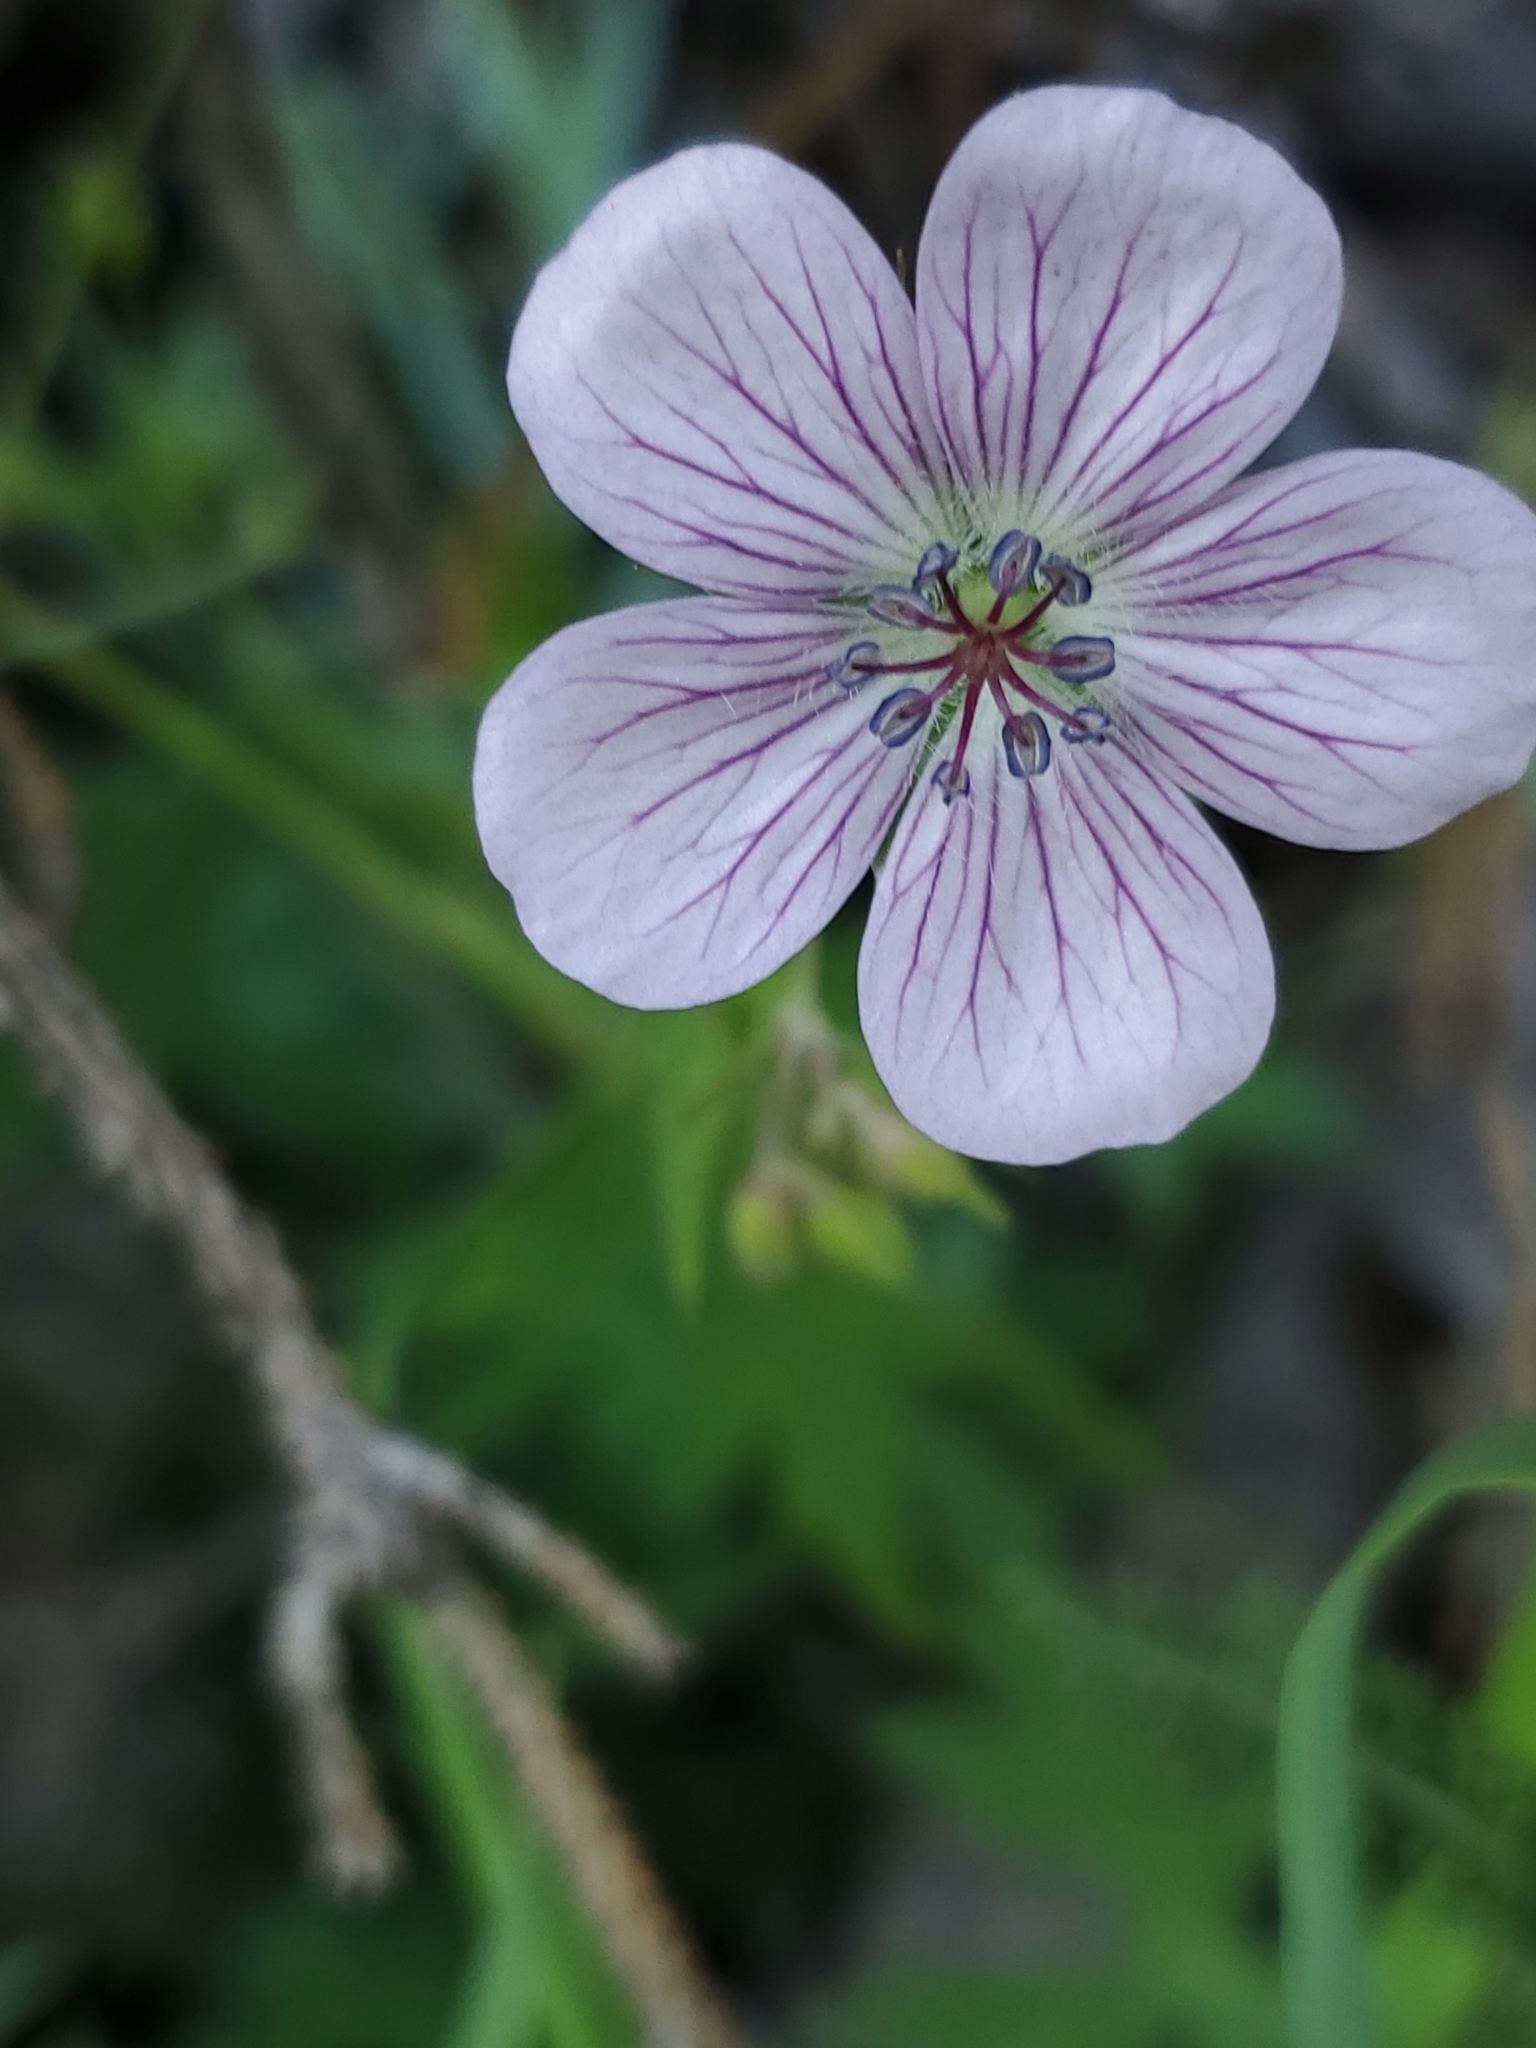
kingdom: Plantae
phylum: Tracheophyta
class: Magnoliopsida
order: Geraniales
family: Geraniaceae
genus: Geranium
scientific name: Geranium richardsonii
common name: Richardson's crane's-bill
